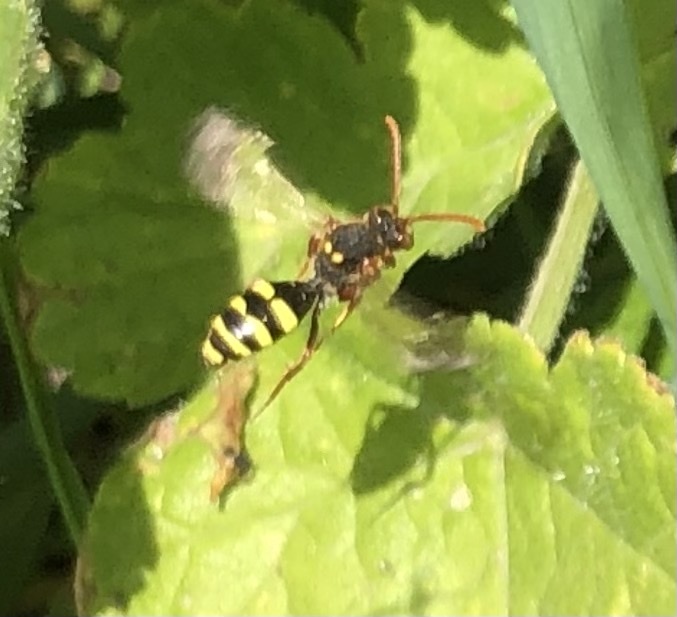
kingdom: Animalia
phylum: Arthropoda
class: Insecta
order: Hymenoptera
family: Apidae
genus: Nomada
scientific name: Nomada marshamella
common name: Marsham's nomad bee
